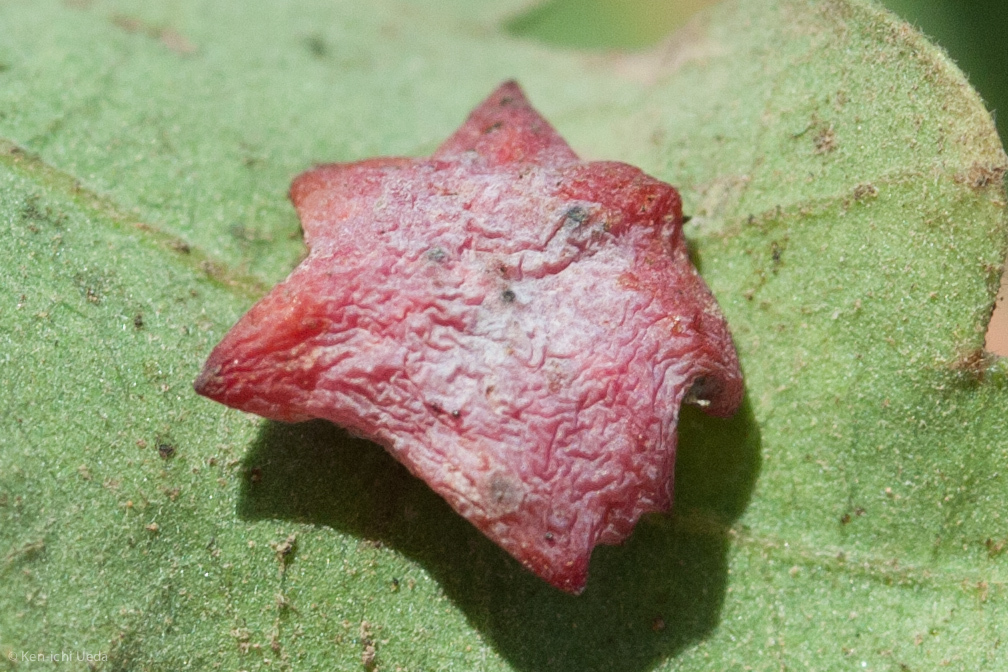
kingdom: Animalia
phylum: Arthropoda
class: Insecta
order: Hymenoptera
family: Cynipidae
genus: Cynips
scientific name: Cynips douglasi
